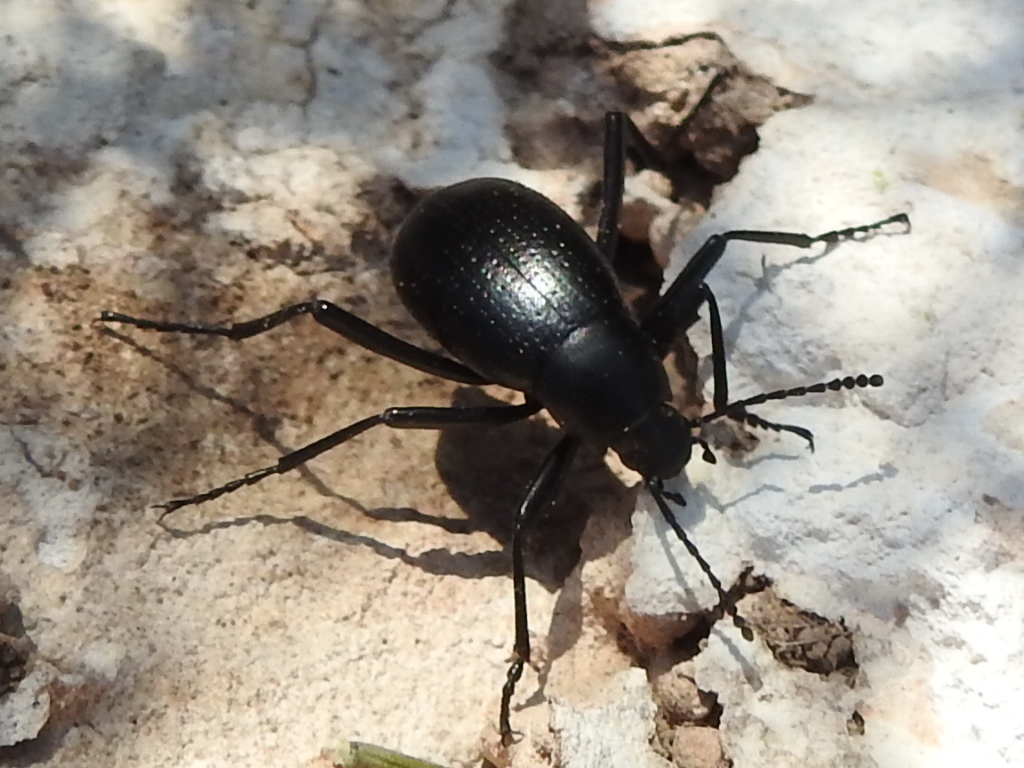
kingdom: Animalia
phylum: Arthropoda
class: Insecta
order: Coleoptera
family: Tenebrionidae
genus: Eleodes
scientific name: Eleodes goryi
